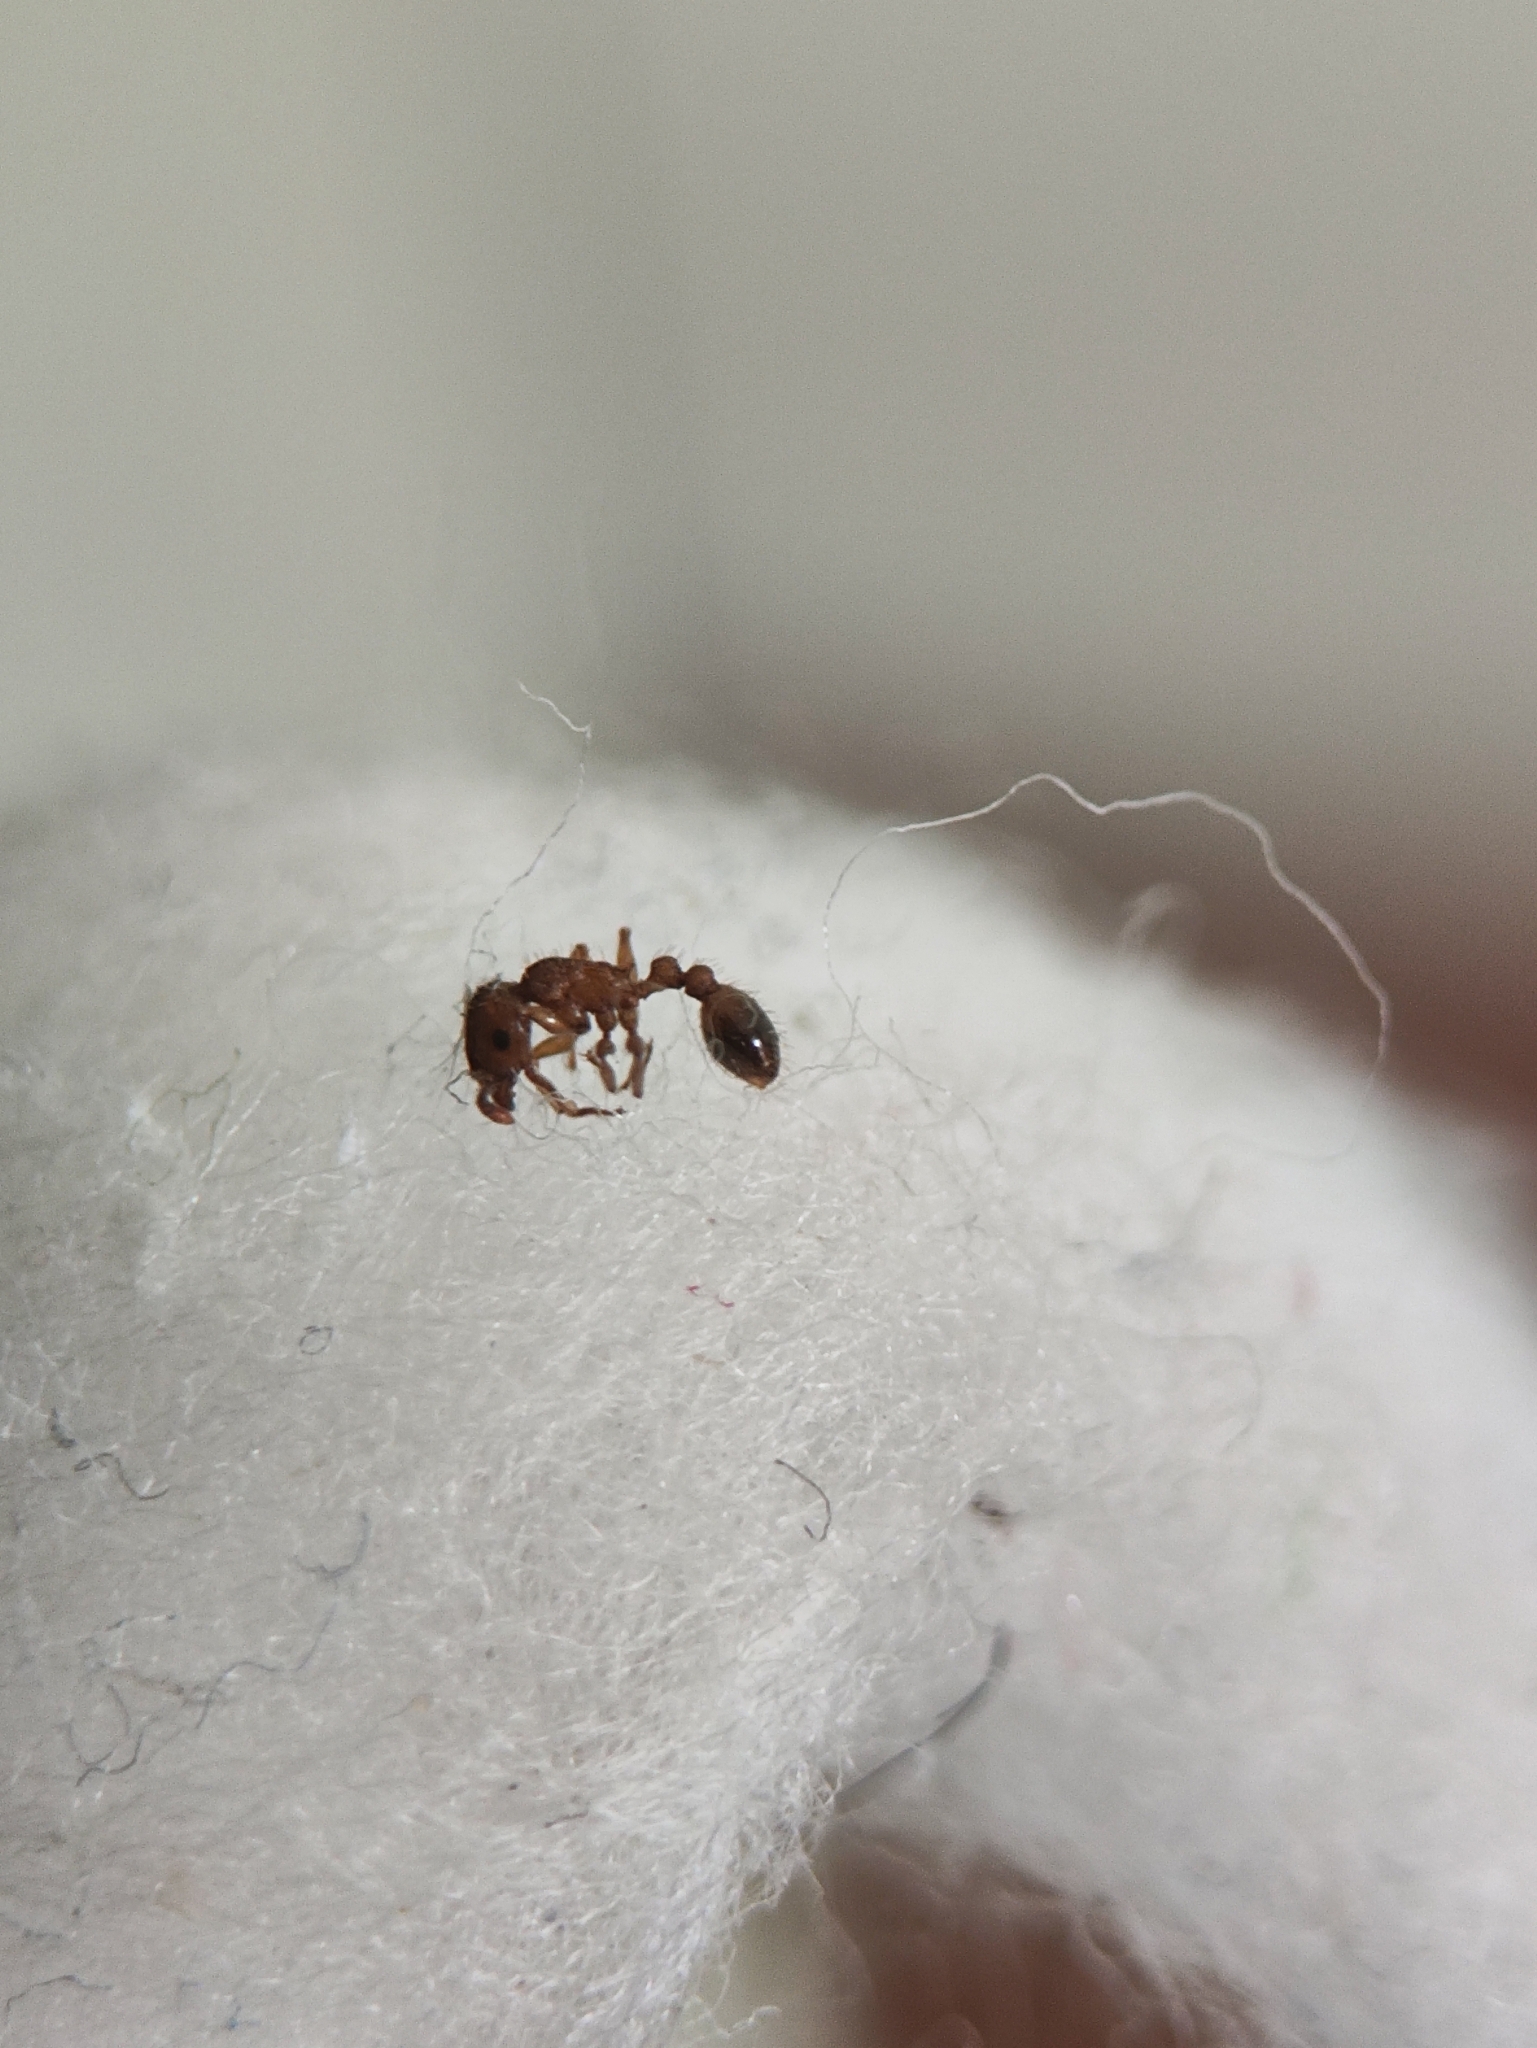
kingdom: Animalia
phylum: Arthropoda
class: Insecta
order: Hymenoptera
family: Formicidae
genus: Tetramorium
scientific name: Tetramorium bicarinatum
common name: Guinea ant
